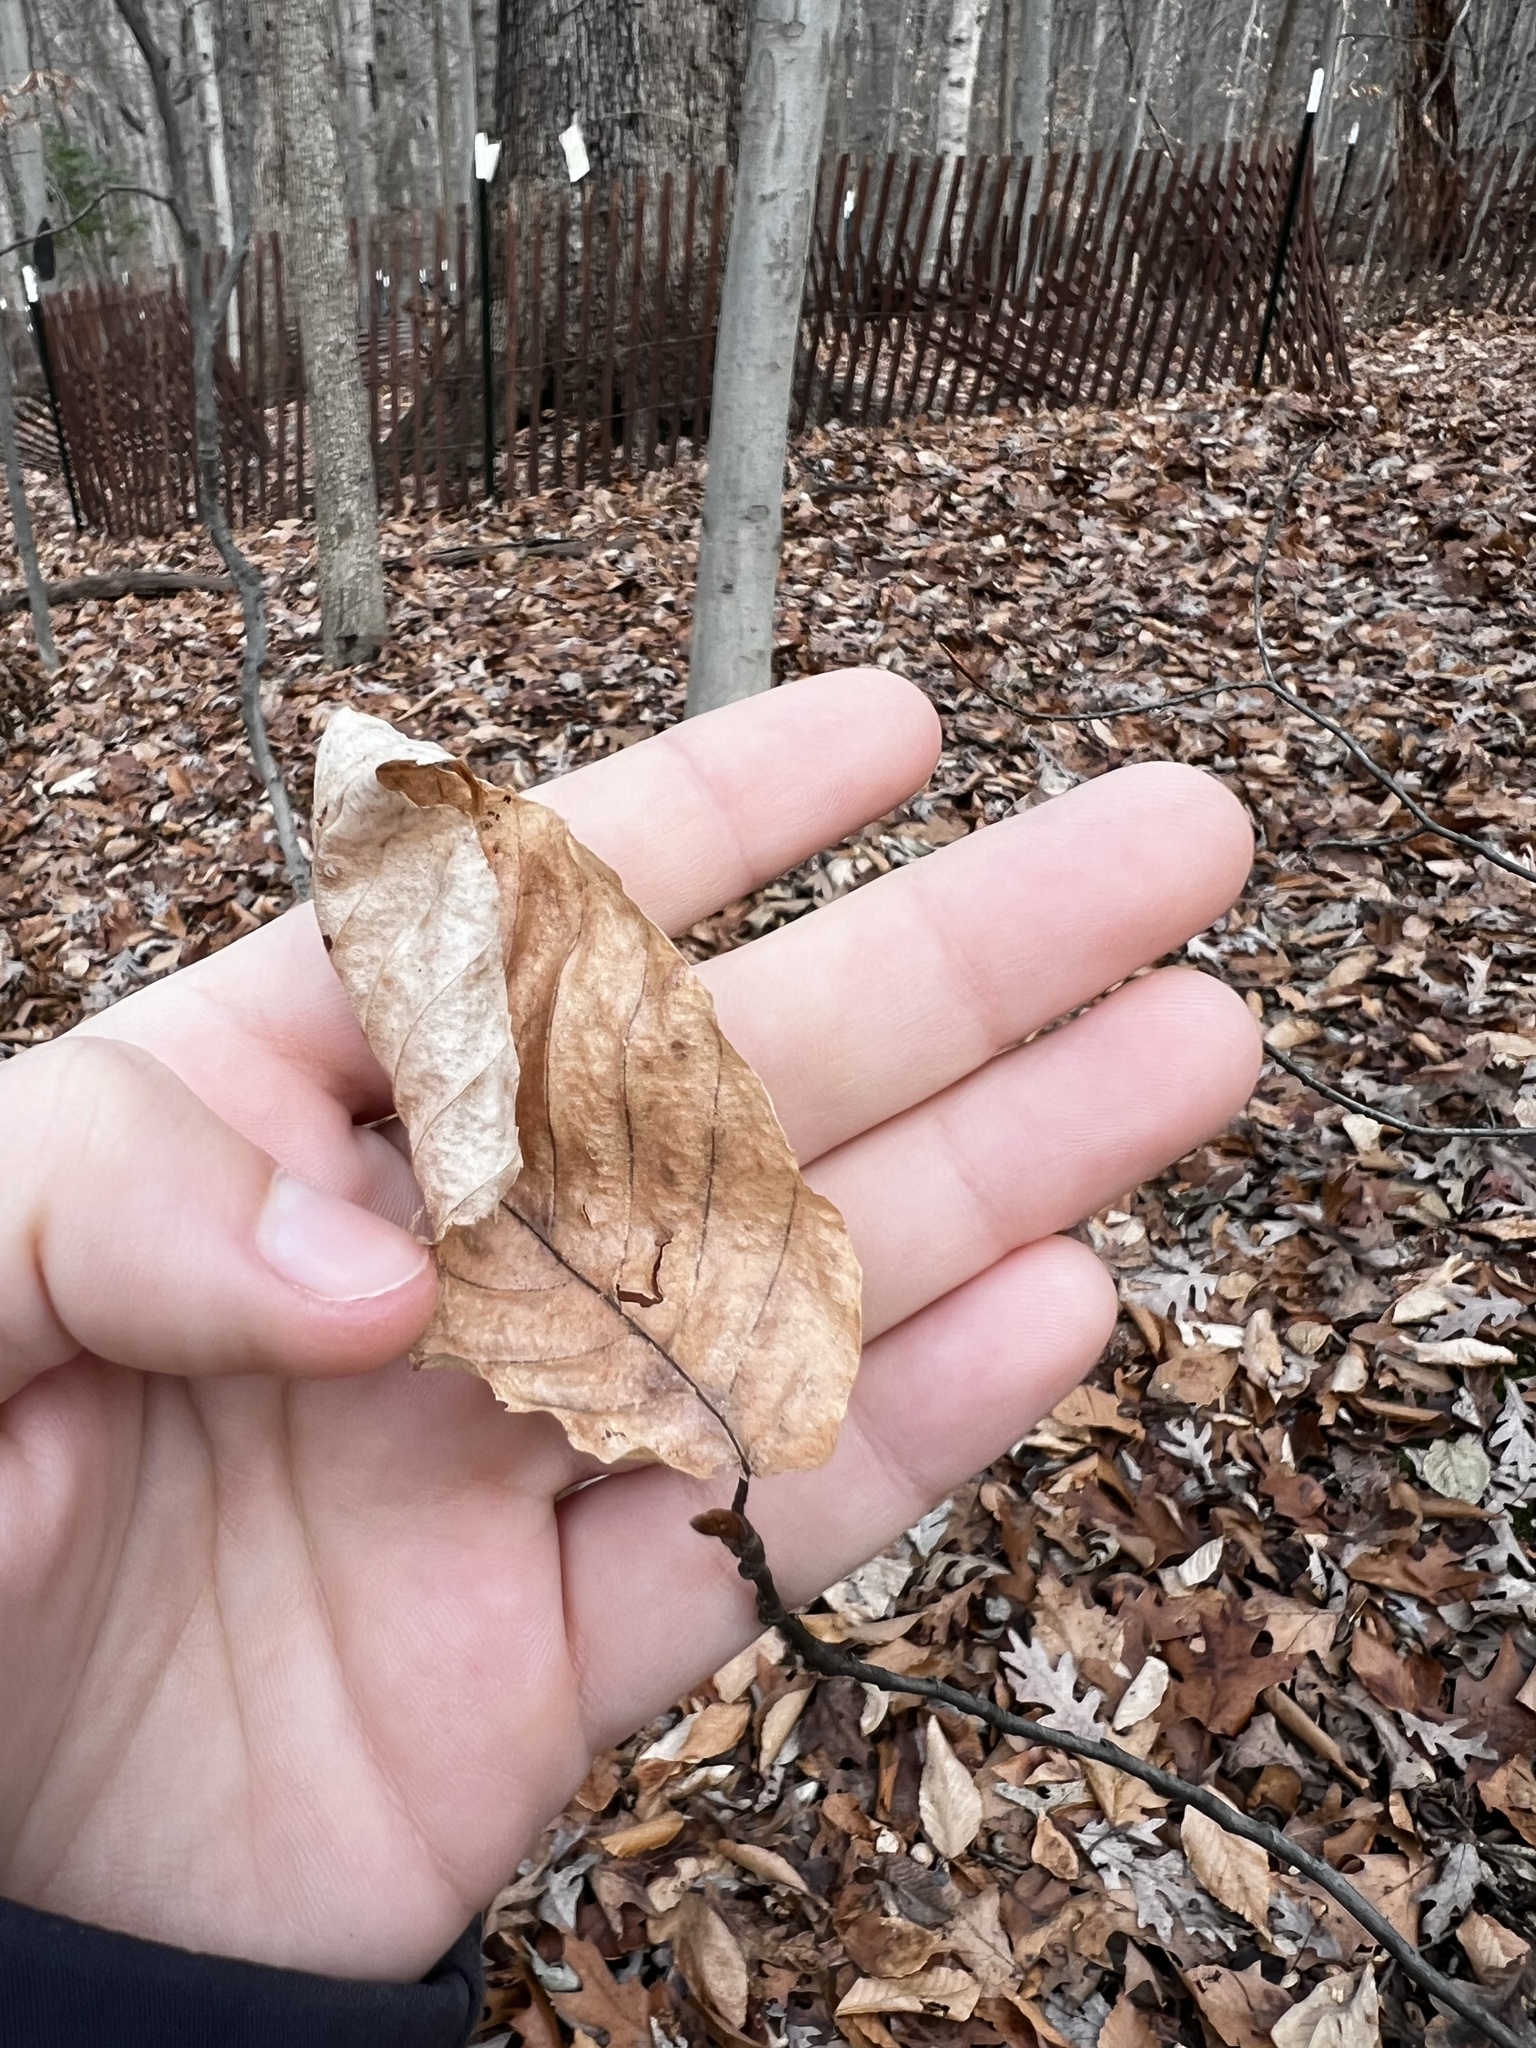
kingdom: Plantae
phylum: Tracheophyta
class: Magnoliopsida
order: Fagales
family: Fagaceae
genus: Fagus
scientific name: Fagus grandifolia
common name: American beech
